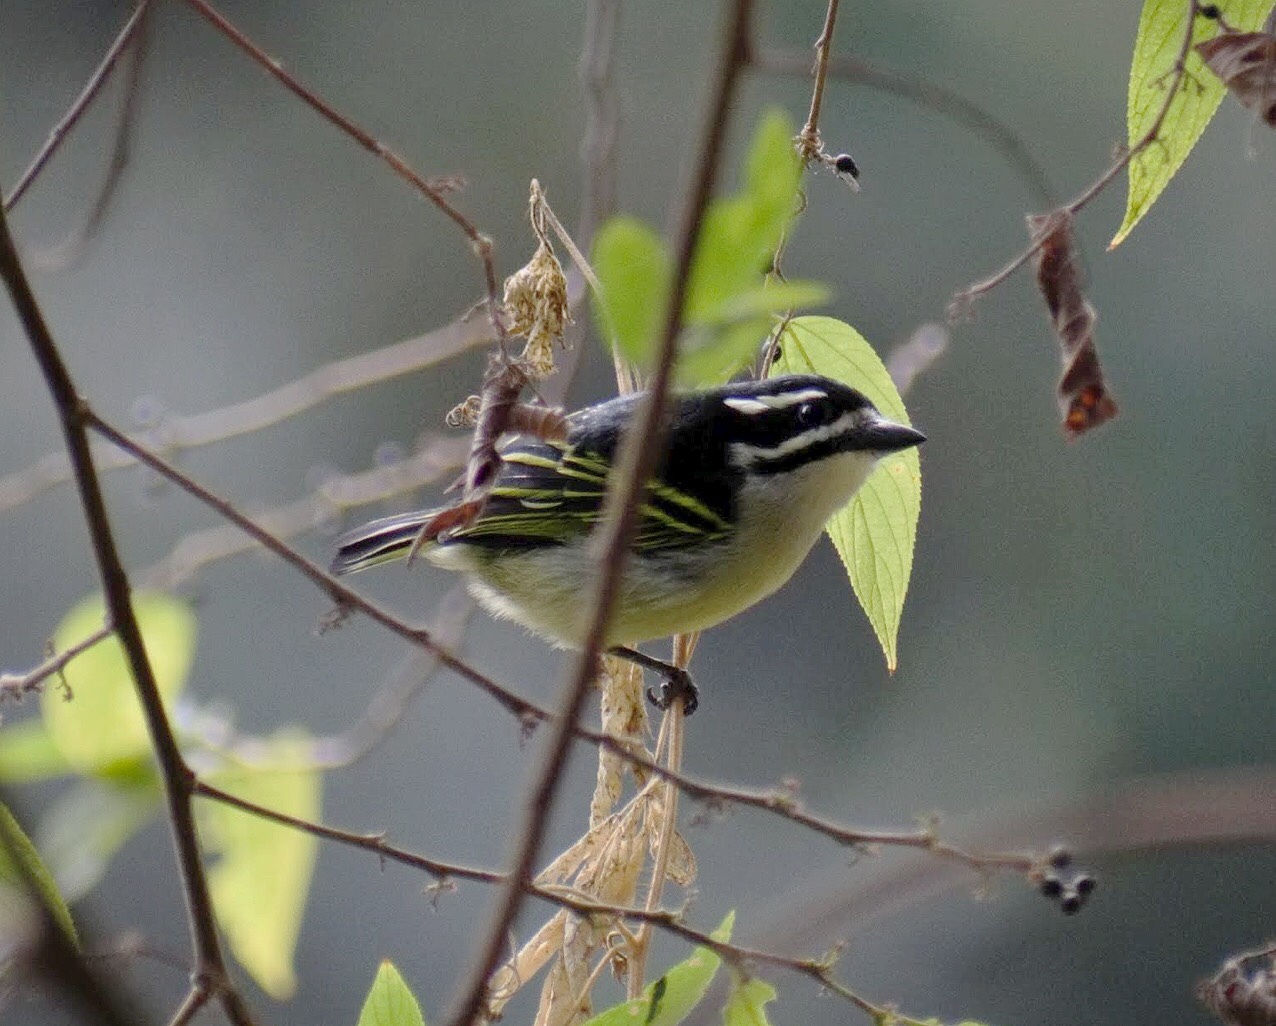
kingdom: Animalia
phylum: Chordata
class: Aves
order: Piciformes
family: Lybiidae
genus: Pogoniulus
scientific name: Pogoniulus bilineatus
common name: Yellow-rumped tinkerbird
